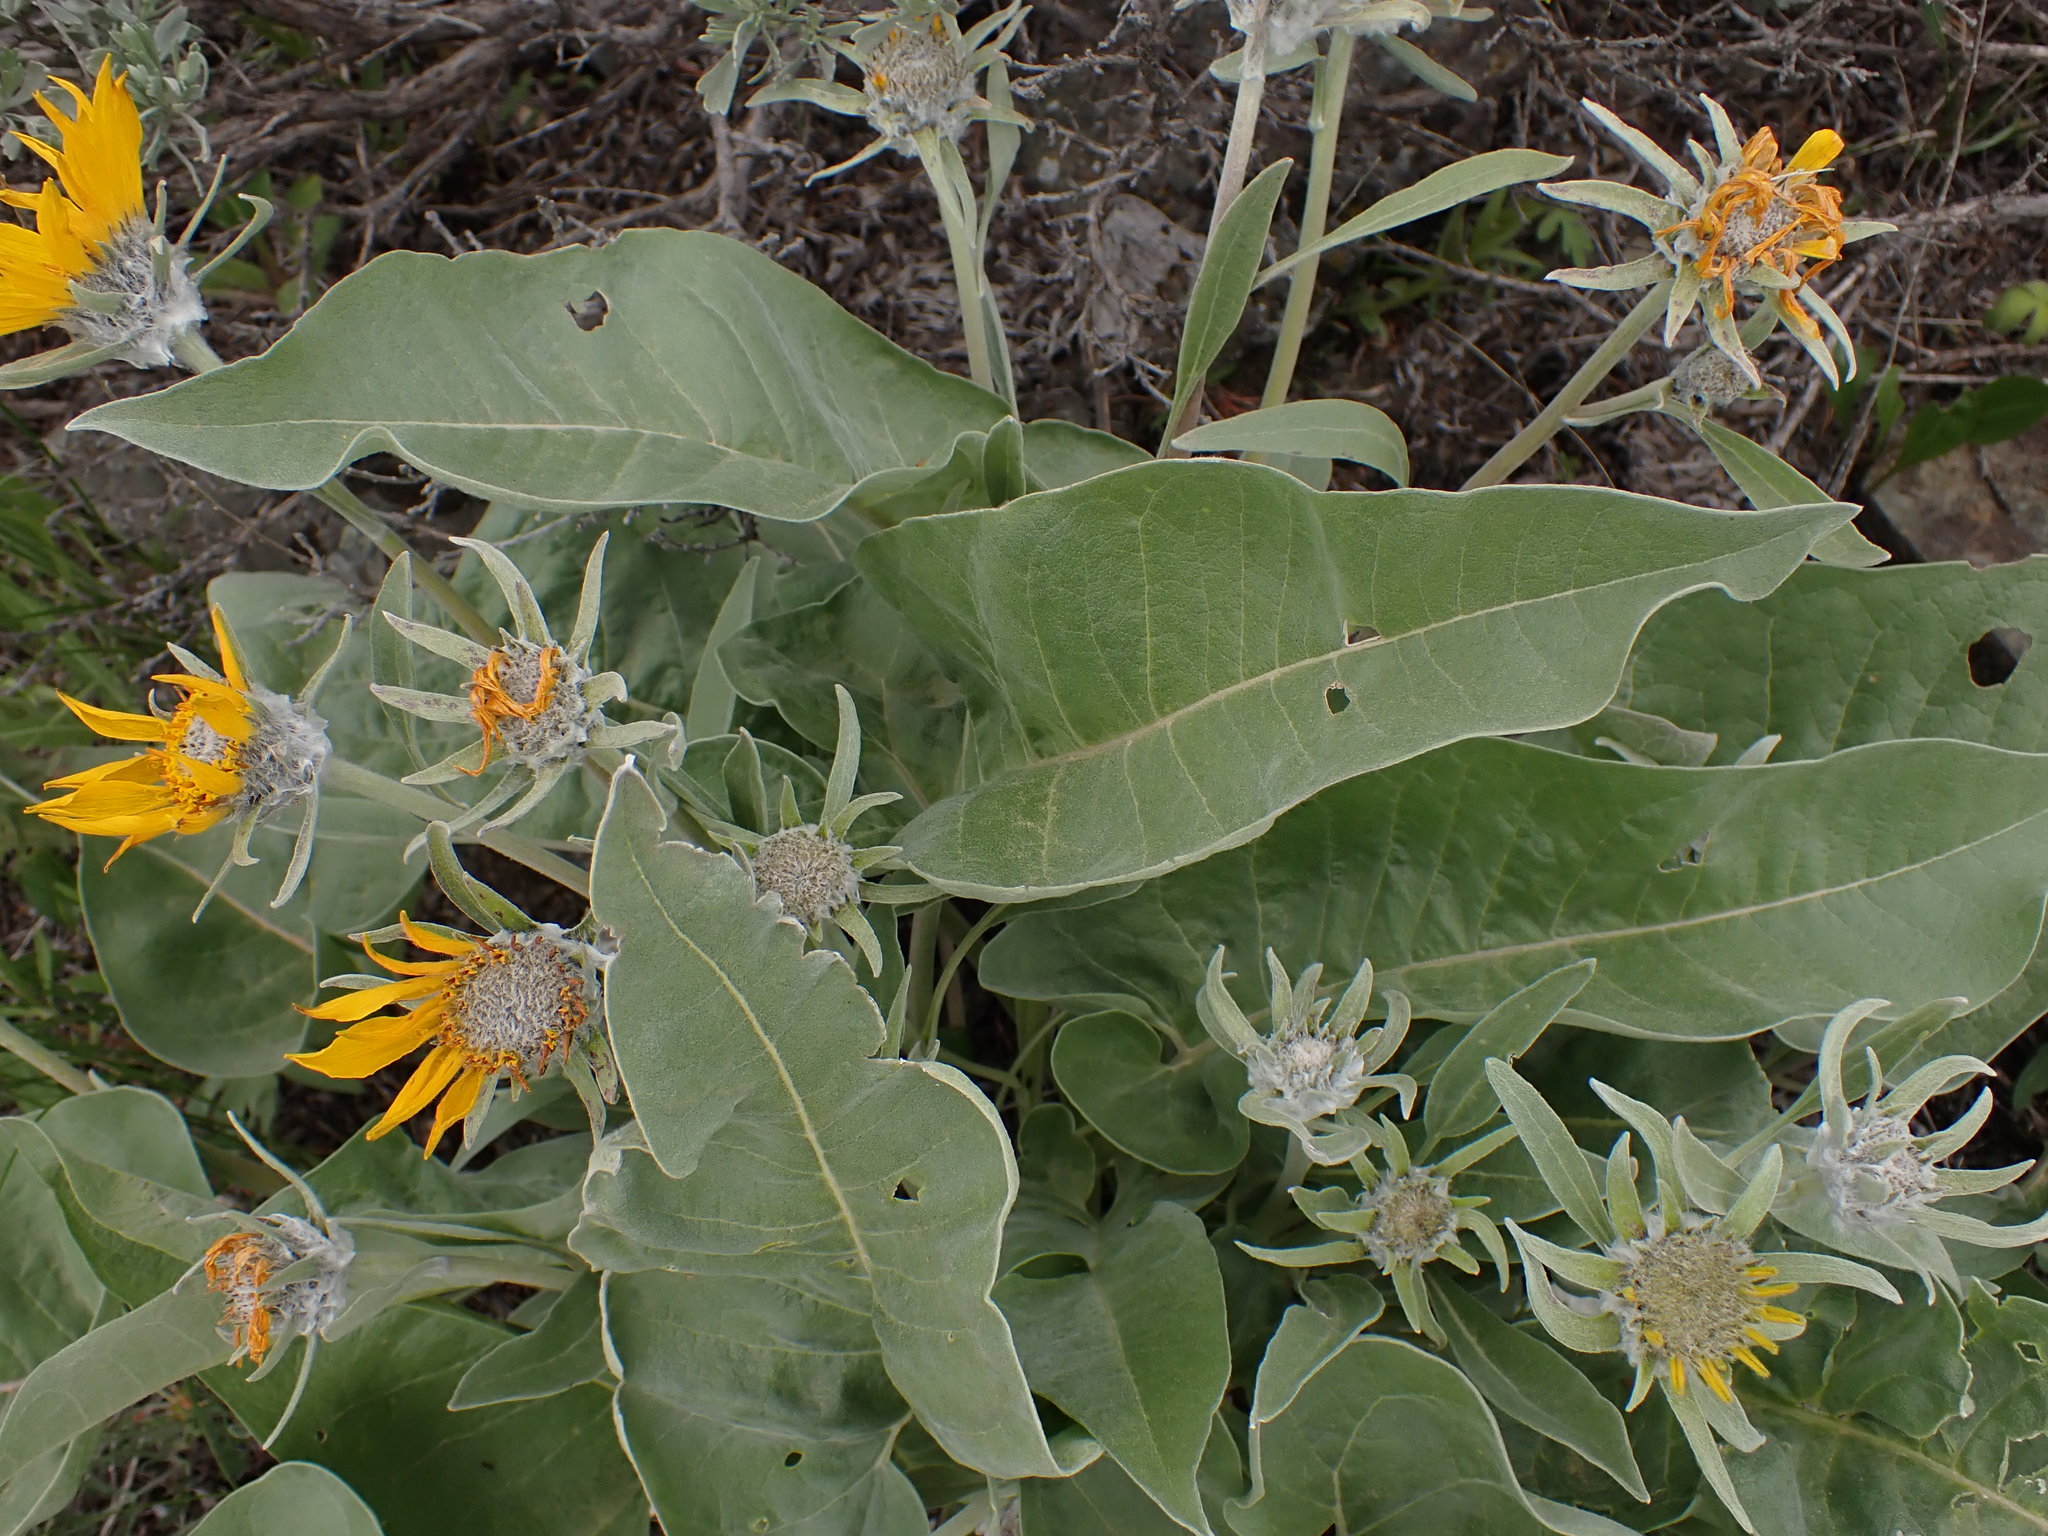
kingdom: Plantae
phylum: Tracheophyta
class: Magnoliopsida
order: Asterales
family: Asteraceae
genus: Wyethia
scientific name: Wyethia sagittata
